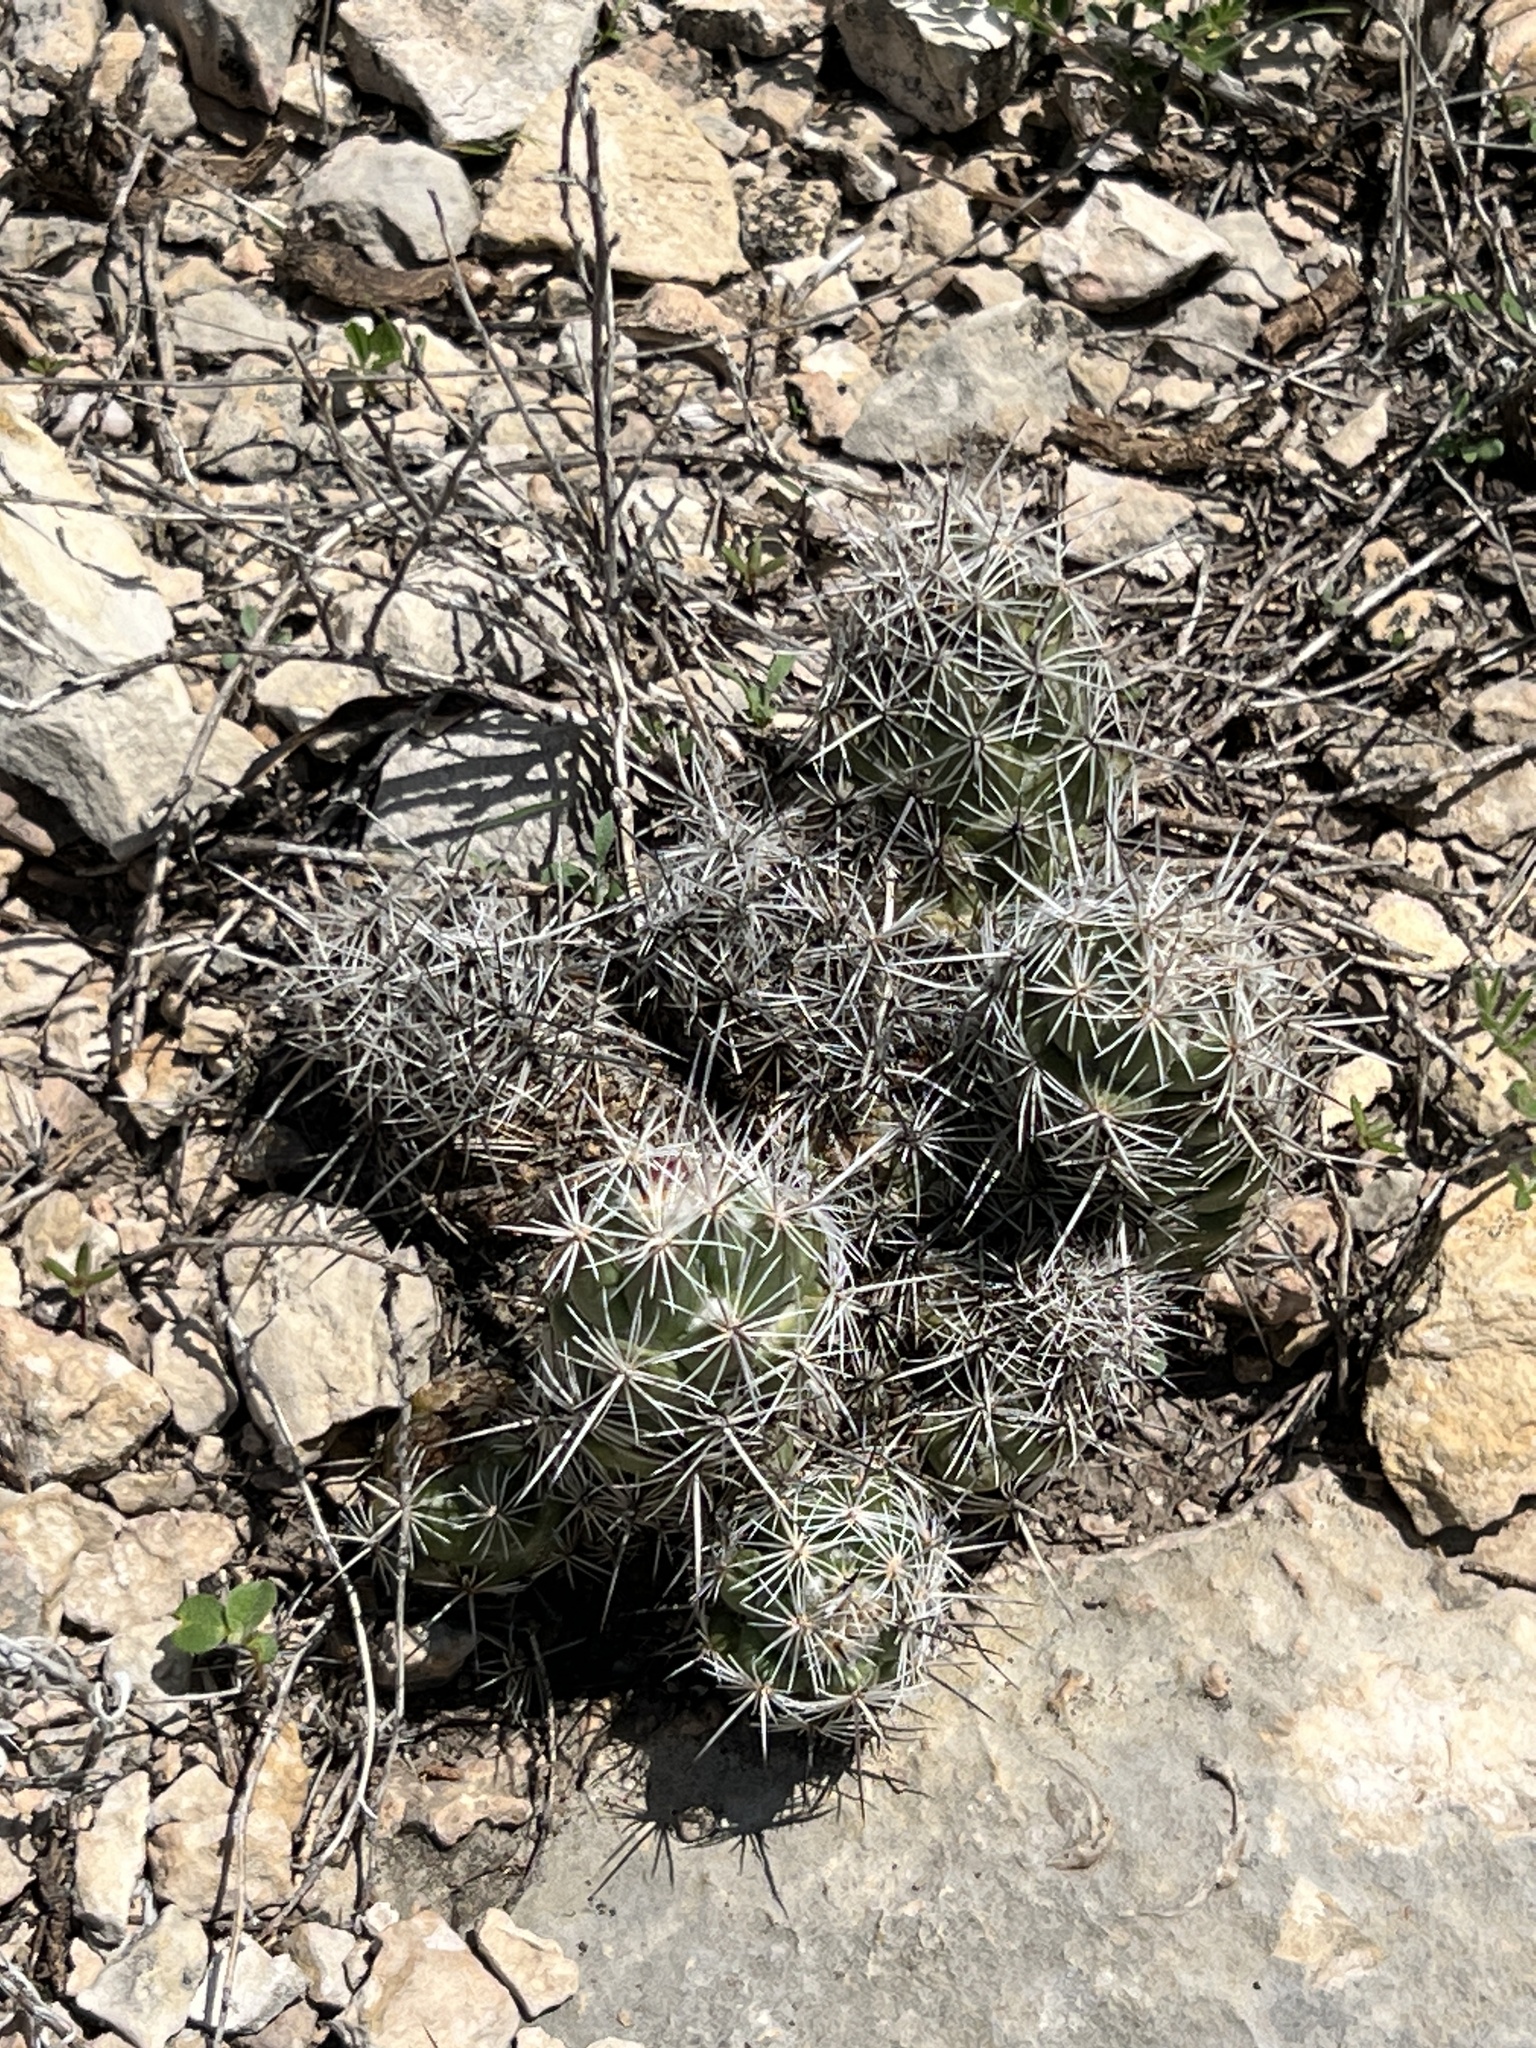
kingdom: Plantae
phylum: Tracheophyta
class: Magnoliopsida
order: Caryophyllales
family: Cactaceae
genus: Cochemiea
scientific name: Cochemiea conoidea
